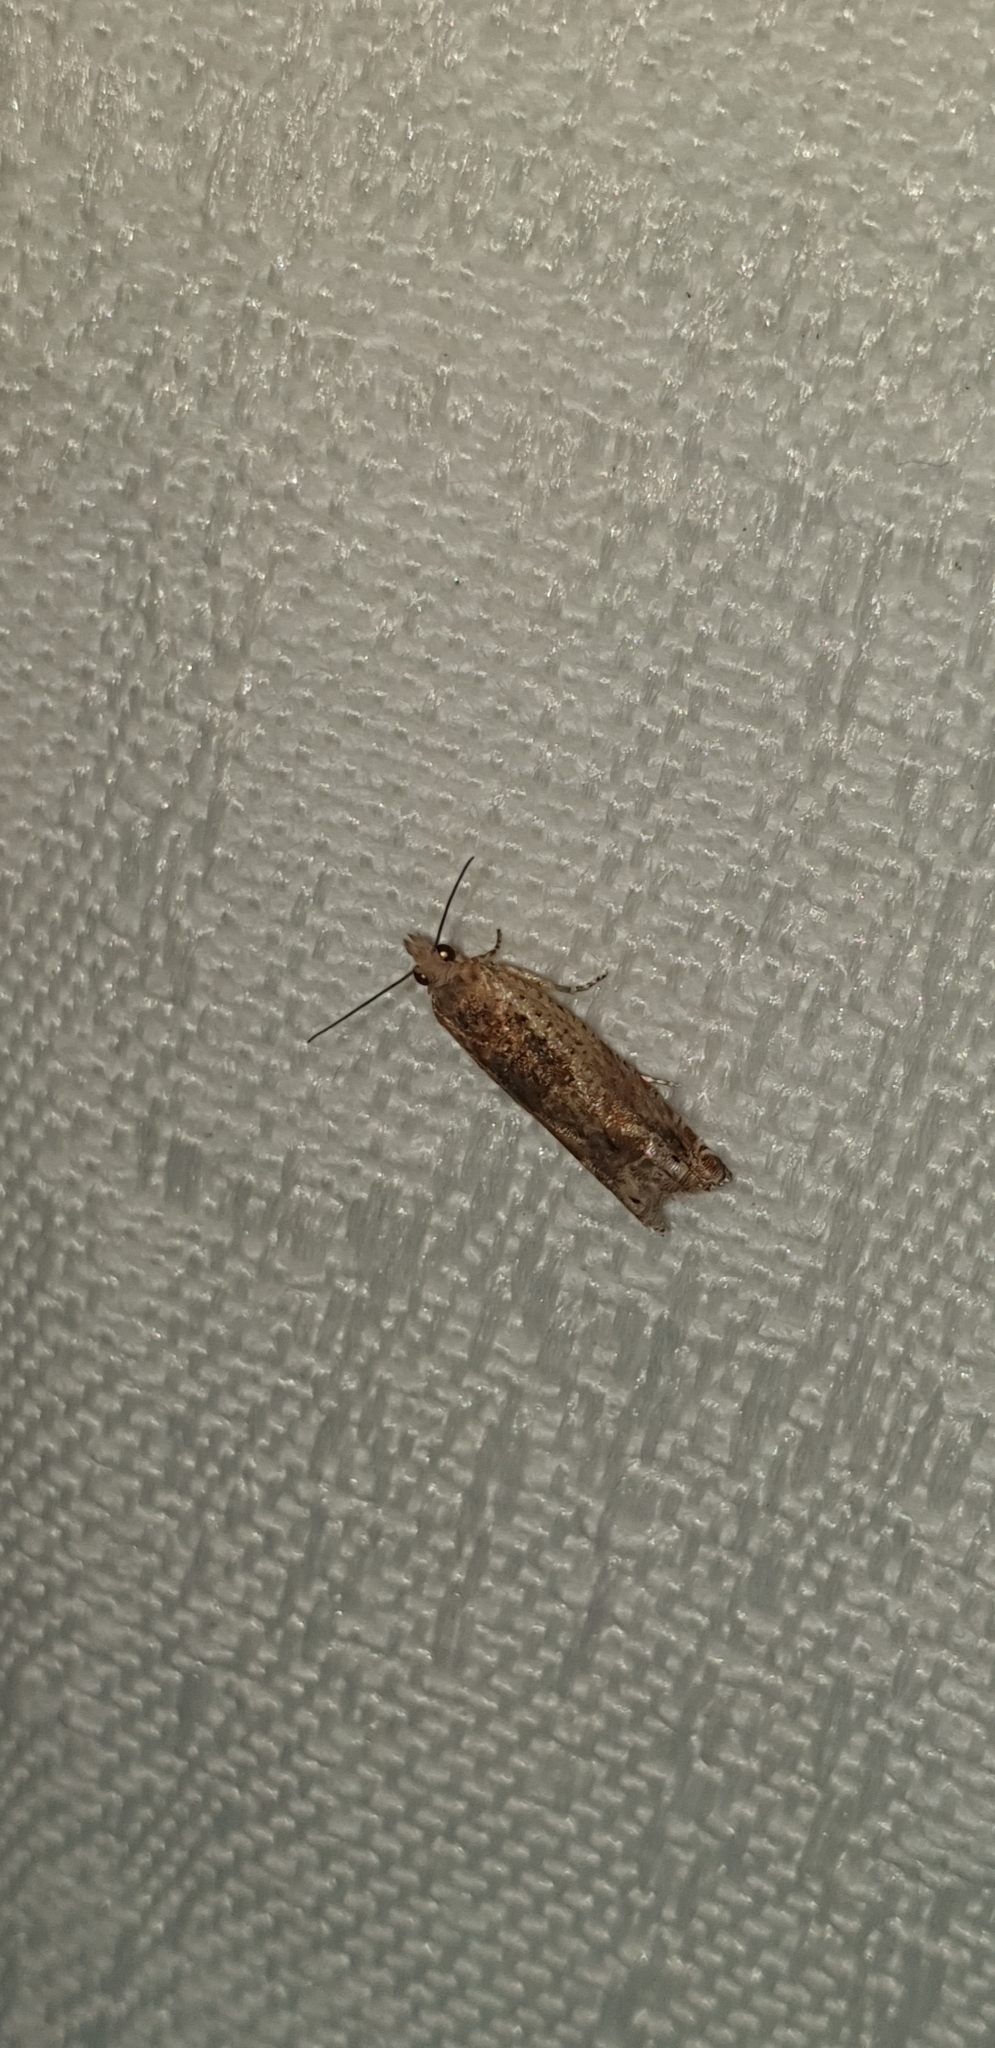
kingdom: Animalia
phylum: Arthropoda
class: Insecta
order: Lepidoptera
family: Tortricidae
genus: Crocidosema
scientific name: Crocidosema plebejana
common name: Southern bell
